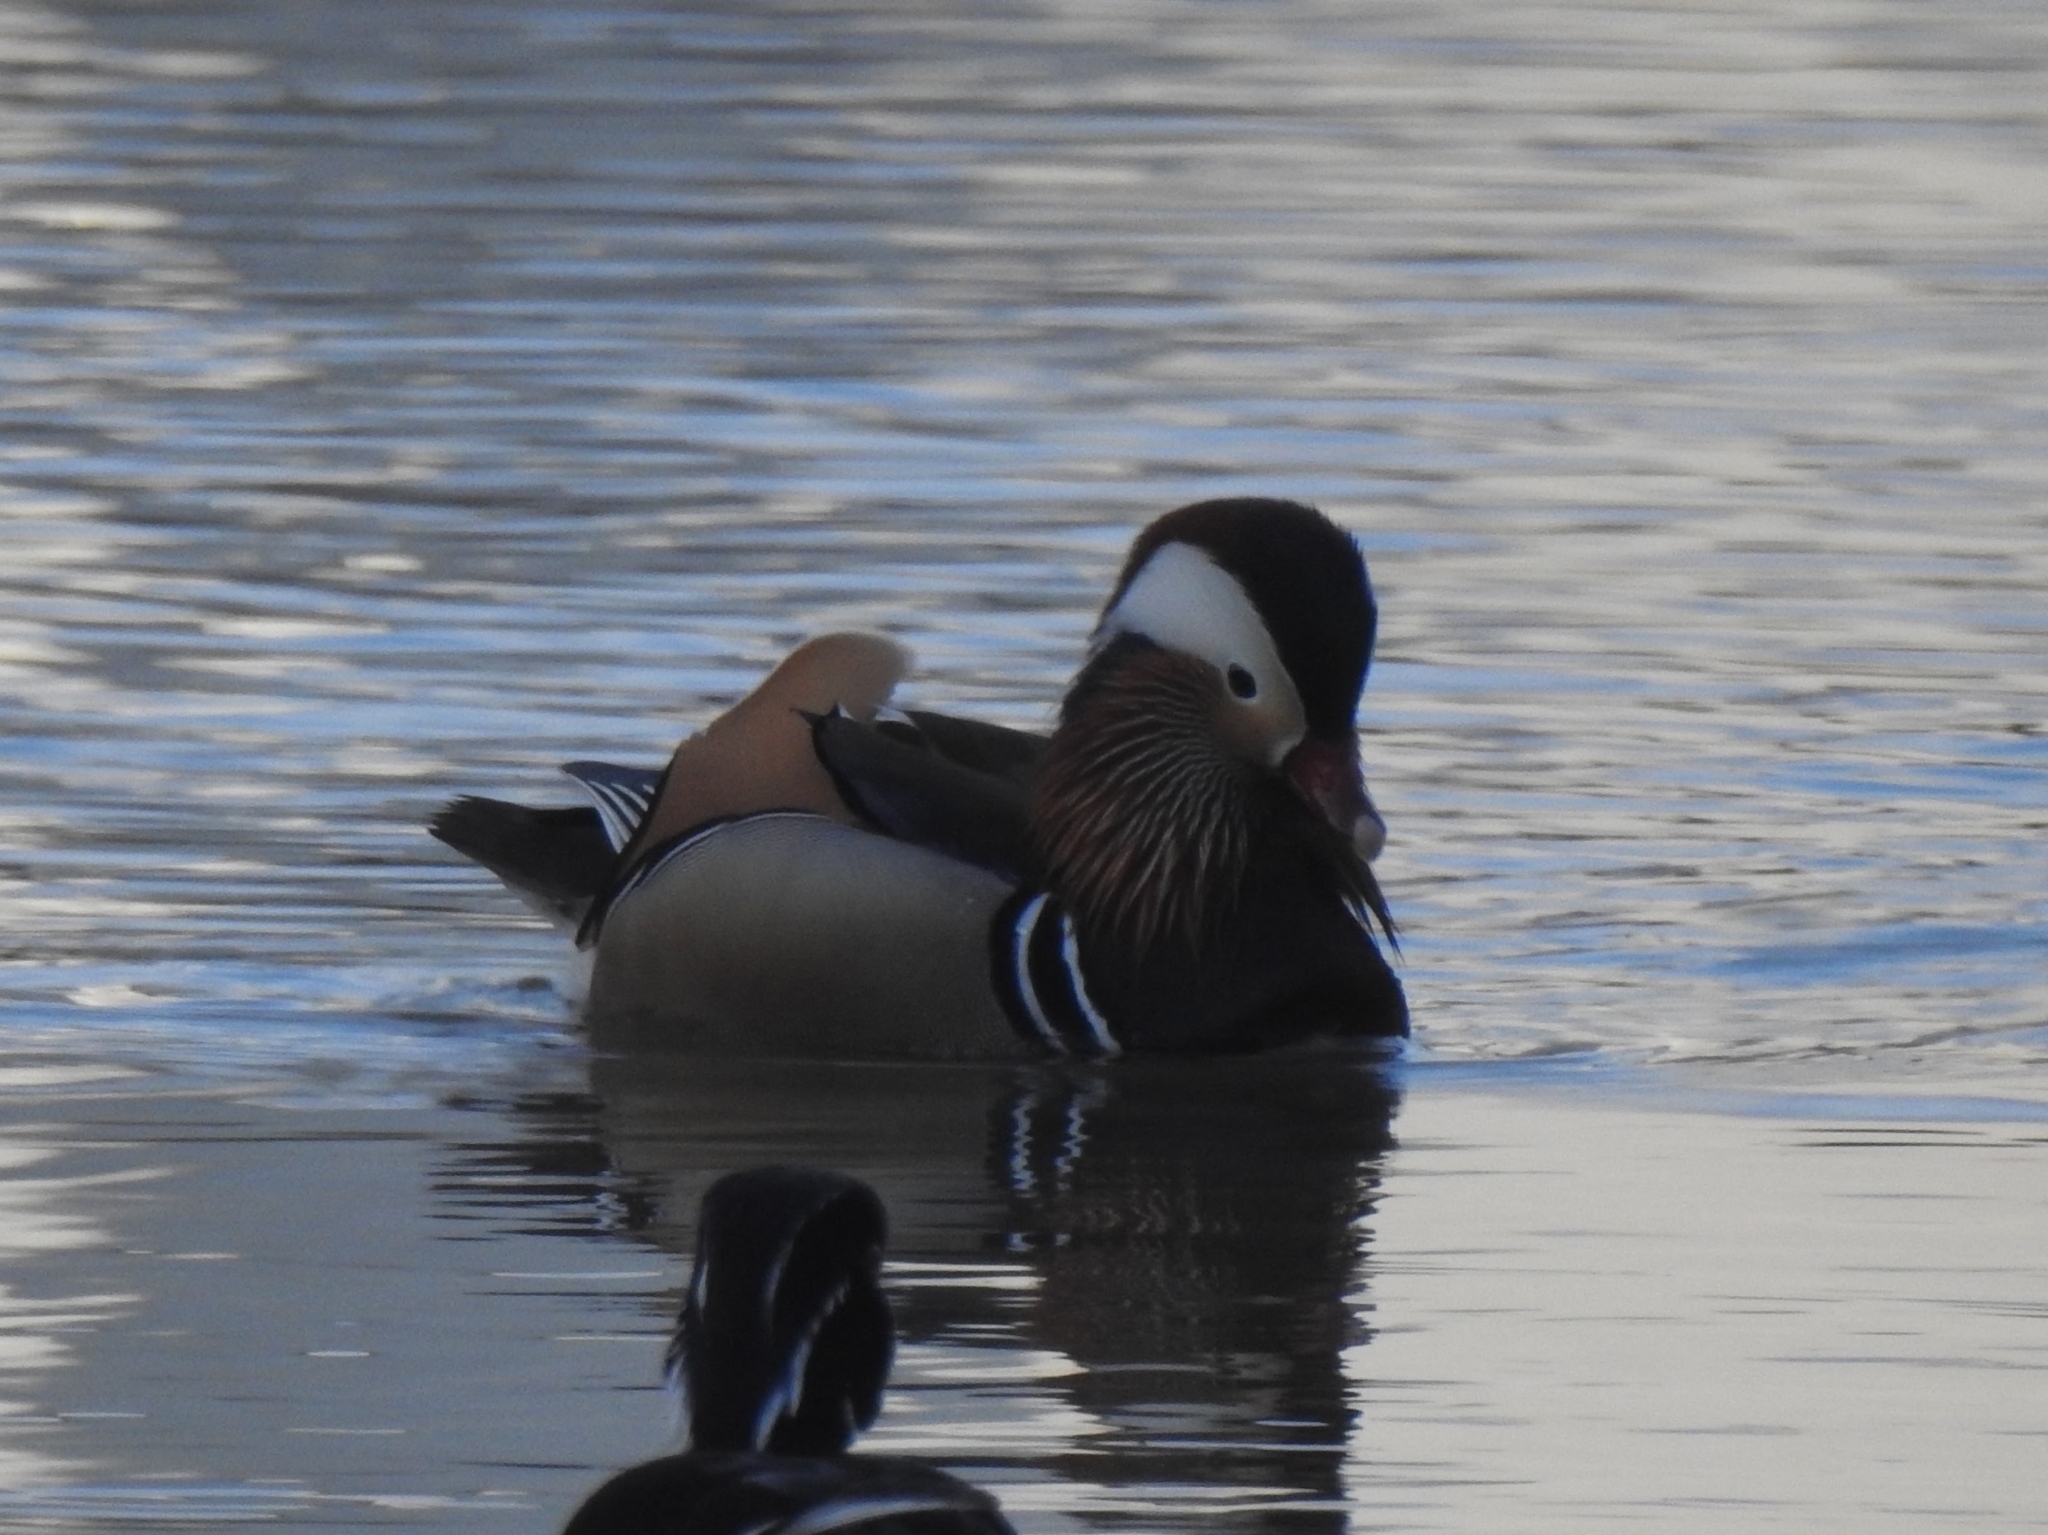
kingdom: Animalia
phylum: Chordata
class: Aves
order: Anseriformes
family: Anatidae
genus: Aix
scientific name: Aix galericulata
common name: Mandarin duck
